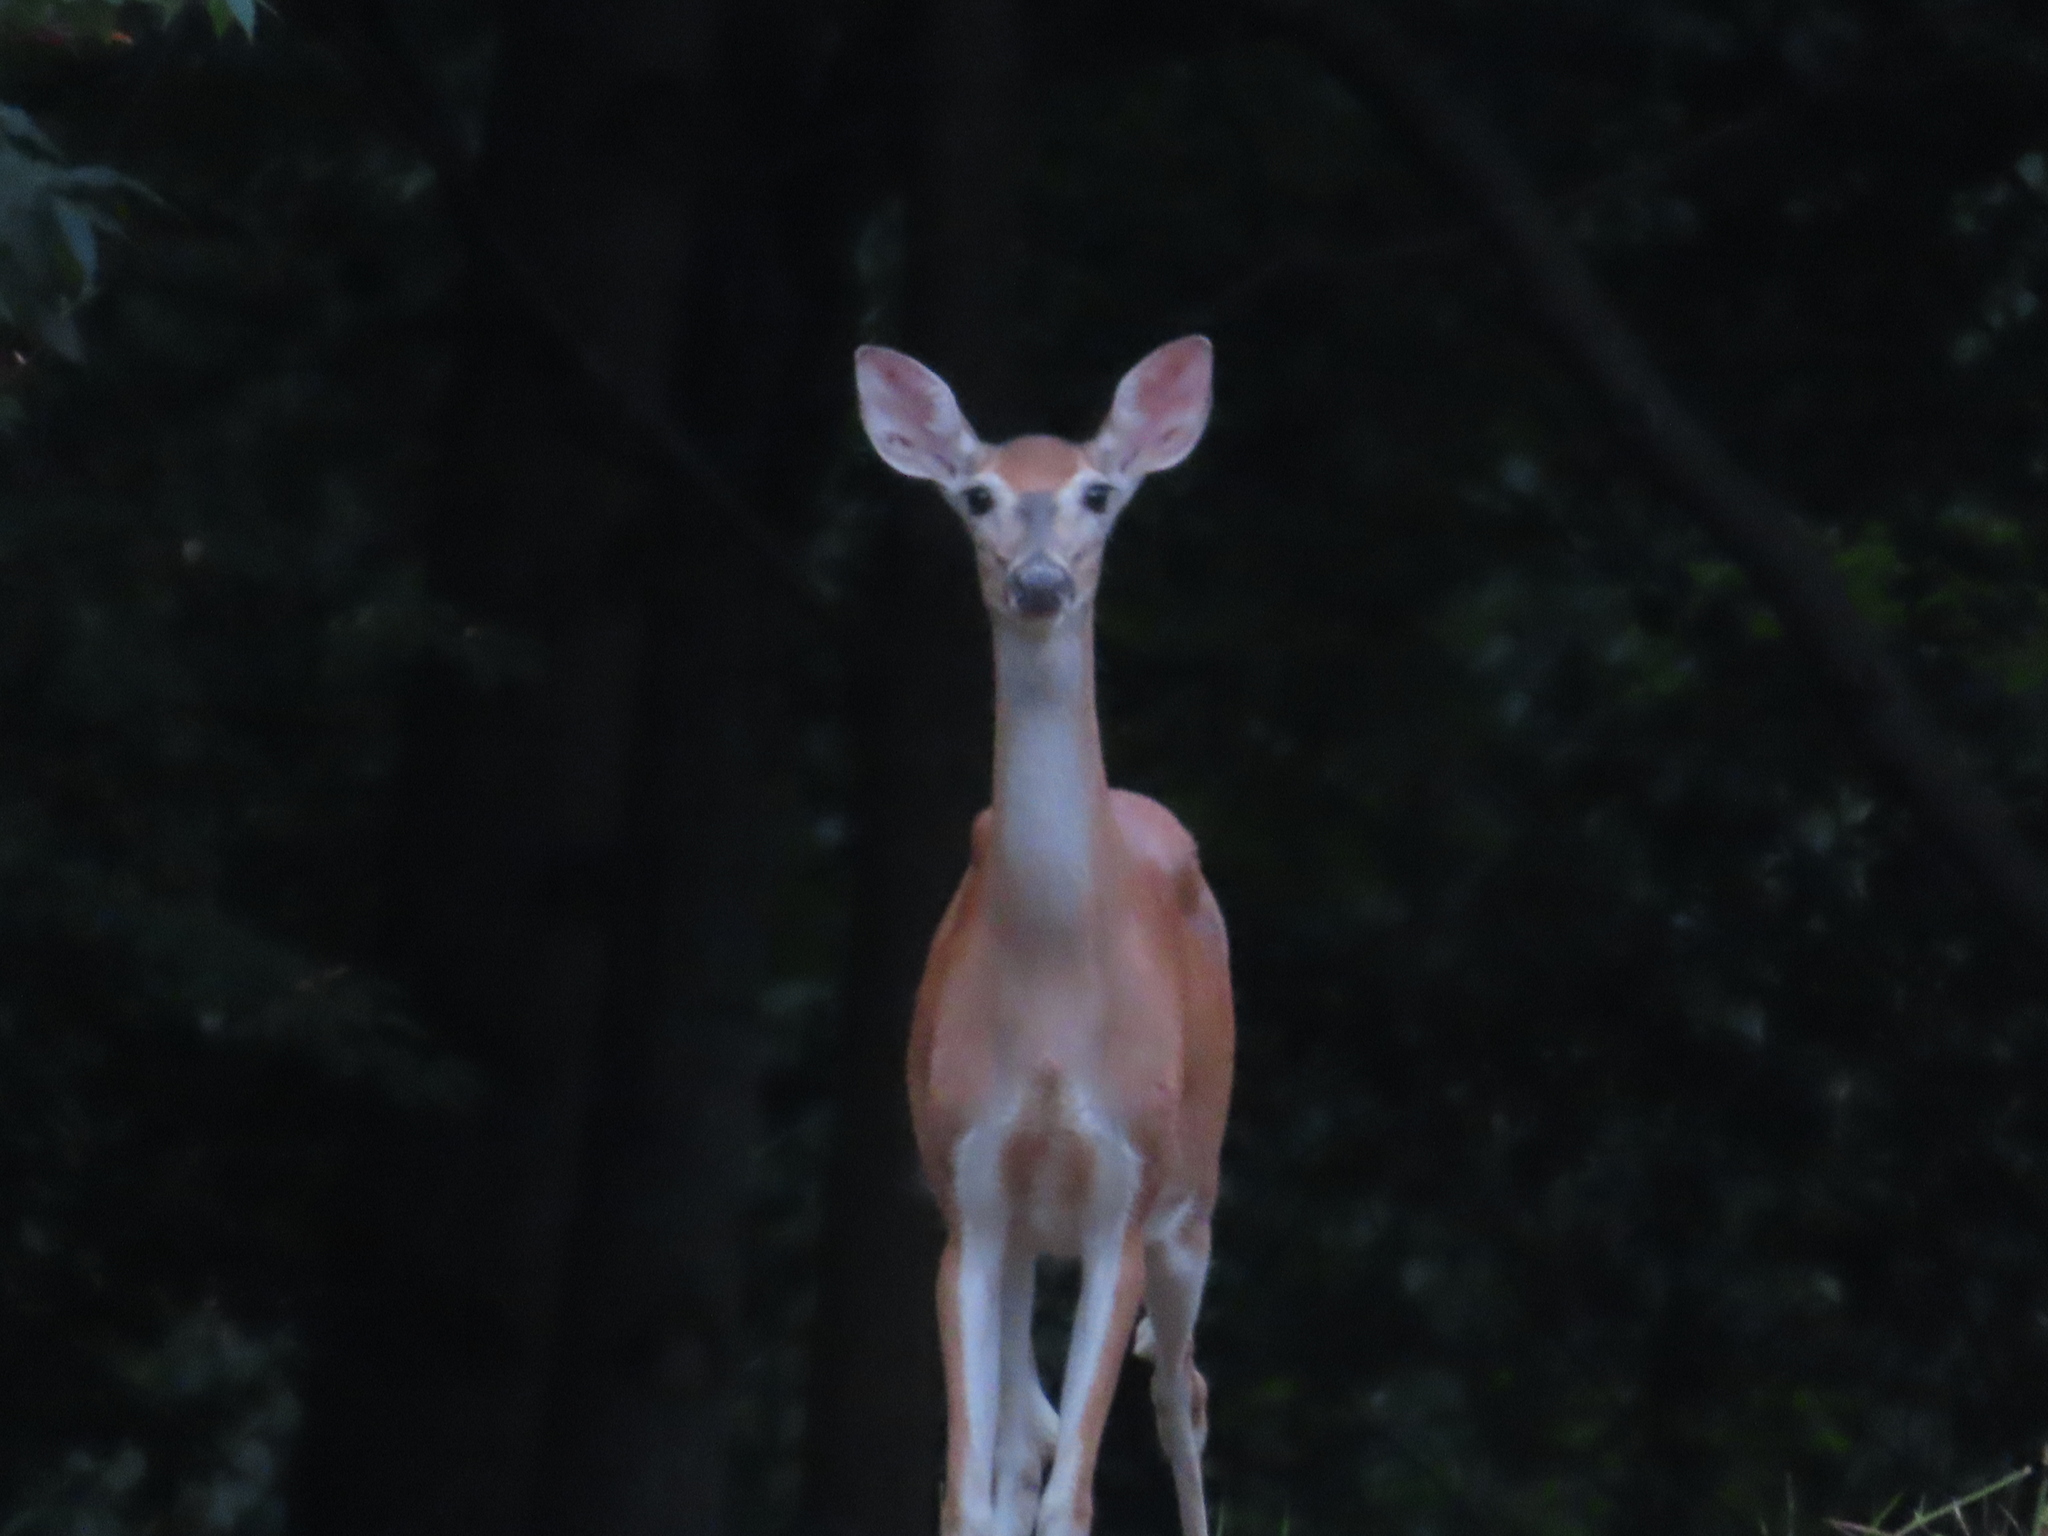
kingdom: Animalia
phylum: Chordata
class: Mammalia
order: Artiodactyla
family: Cervidae
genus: Odocoileus
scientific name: Odocoileus virginianus
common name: White-tailed deer
